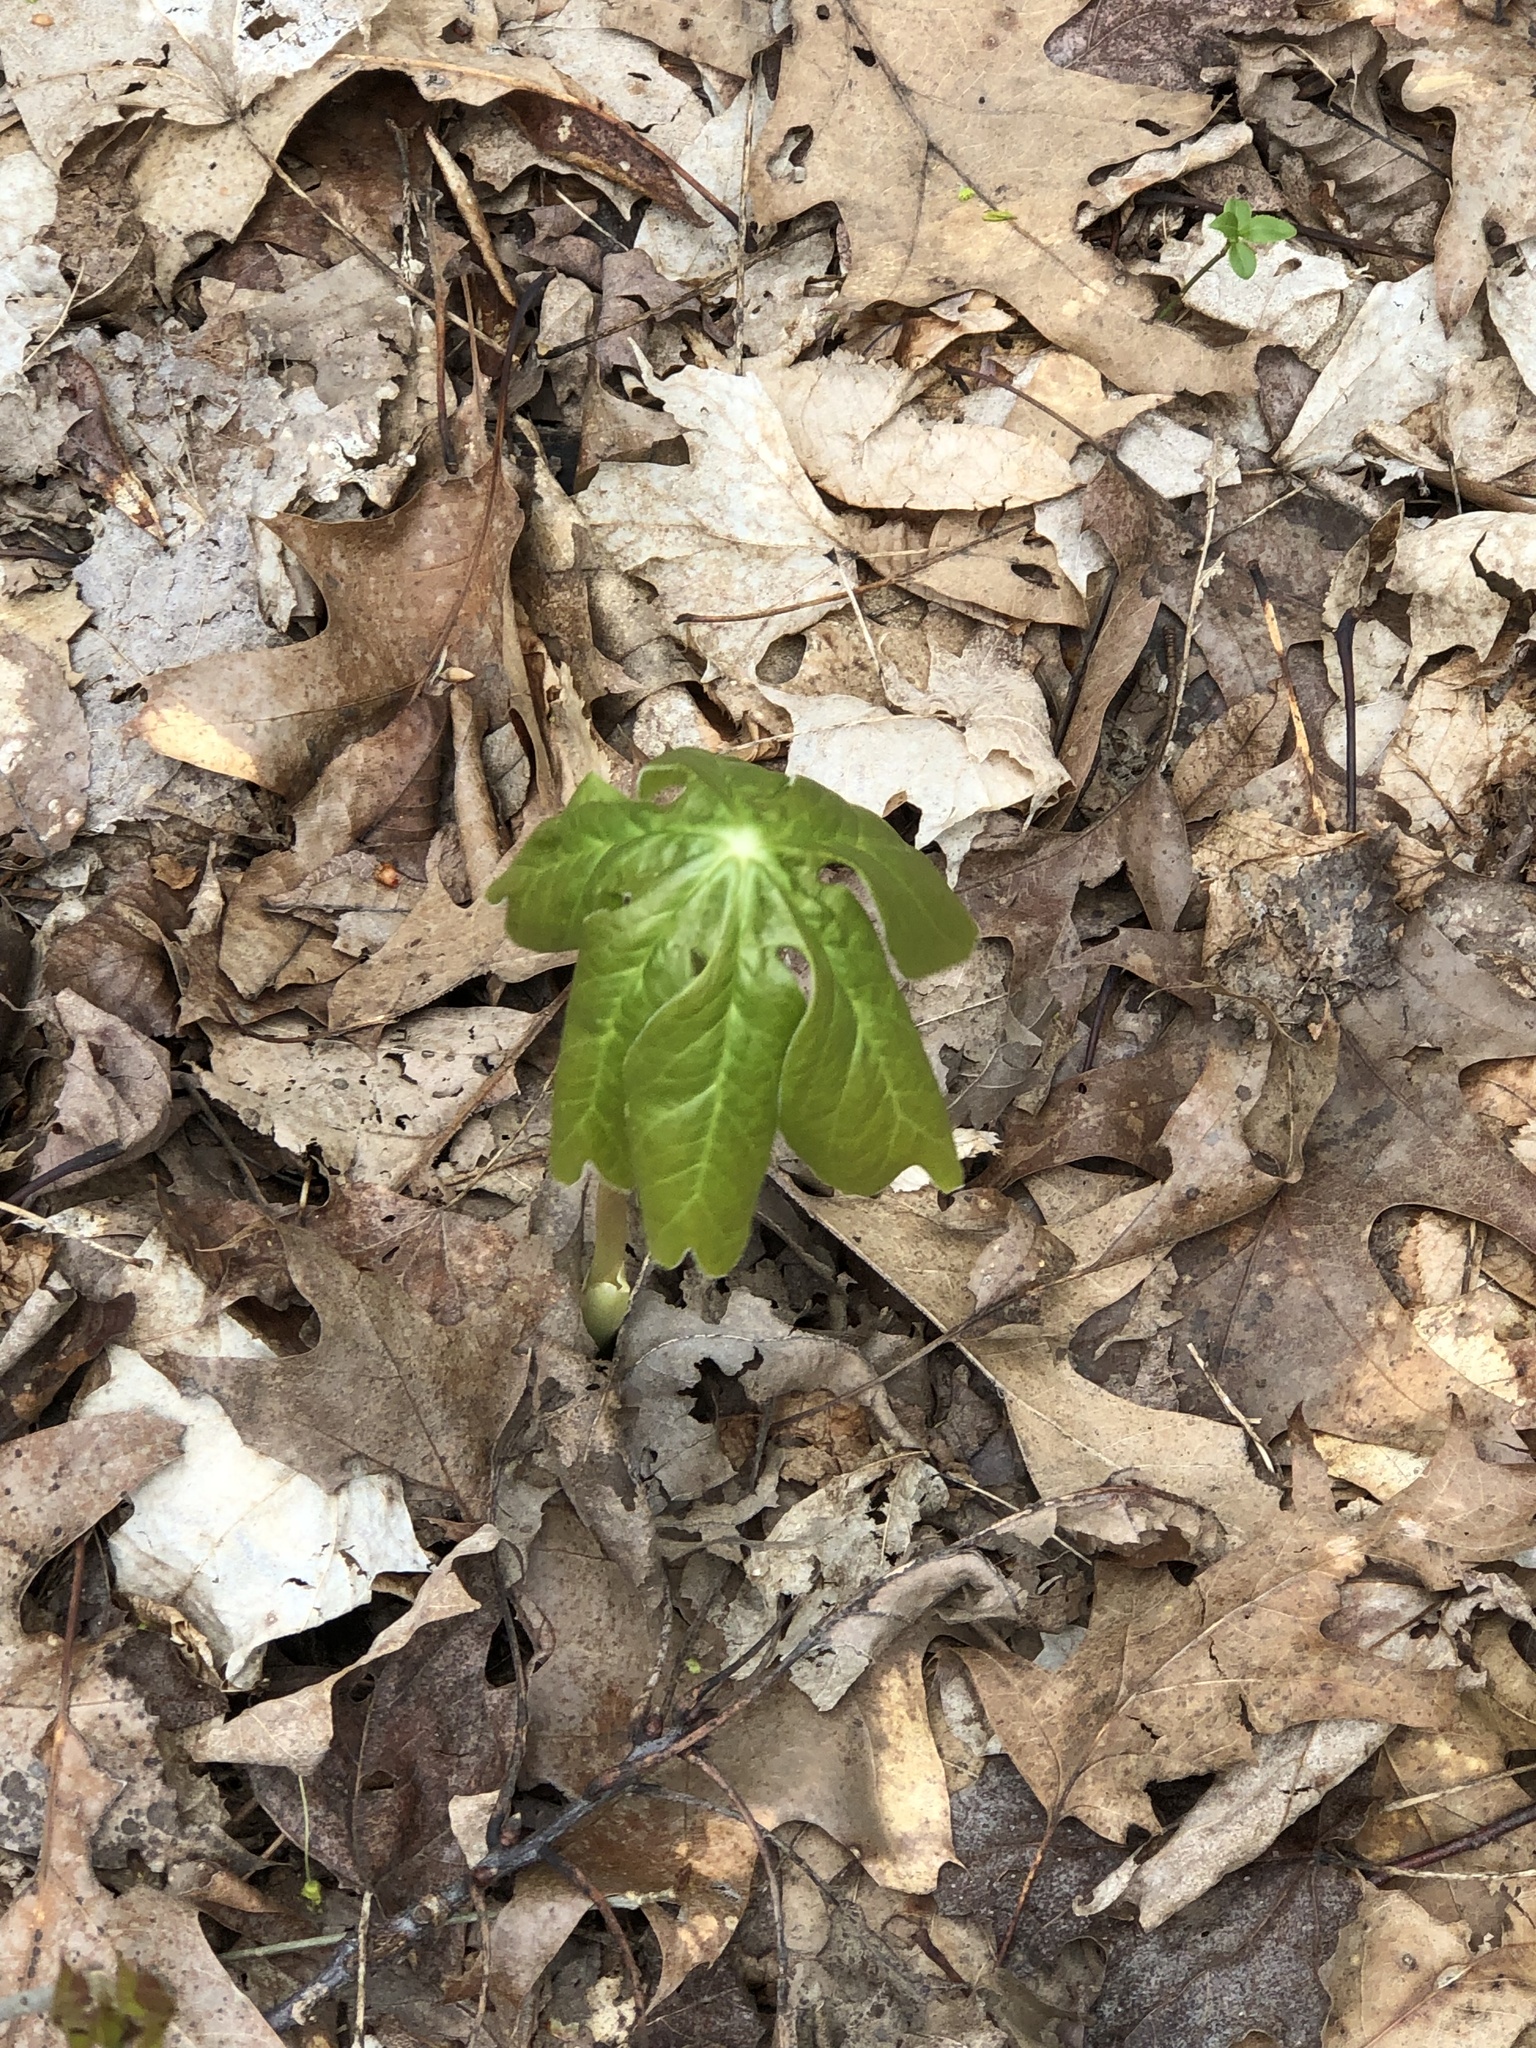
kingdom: Plantae
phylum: Tracheophyta
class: Magnoliopsida
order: Ranunculales
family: Berberidaceae
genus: Podophyllum
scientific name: Podophyllum peltatum
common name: Wild mandrake
